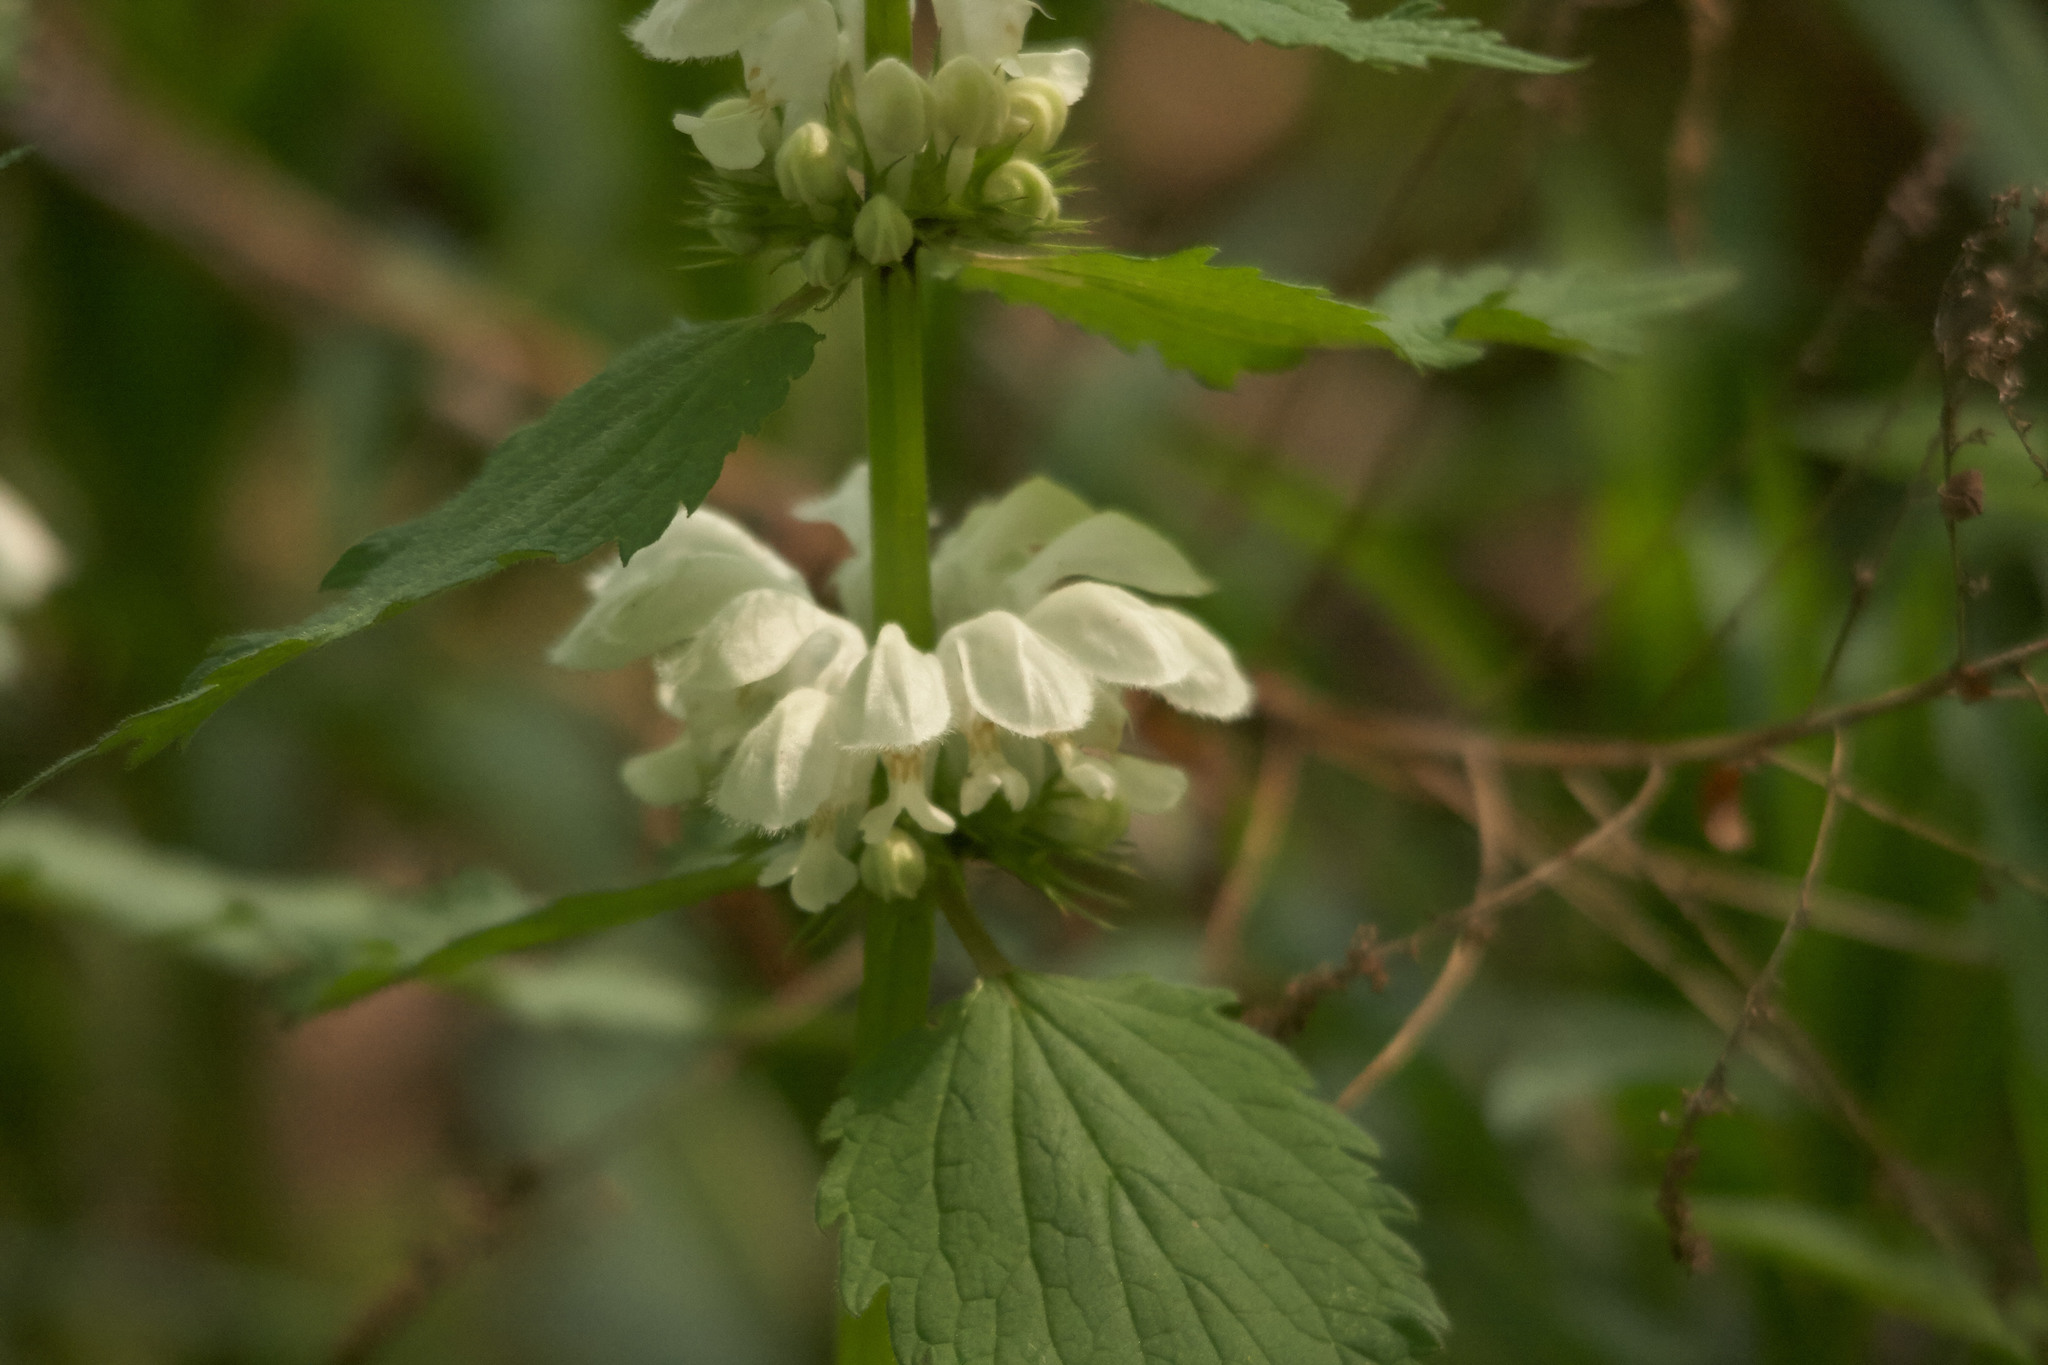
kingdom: Plantae
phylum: Tracheophyta
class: Magnoliopsida
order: Lamiales
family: Lamiaceae
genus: Lamium
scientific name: Lamium album
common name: White dead-nettle
